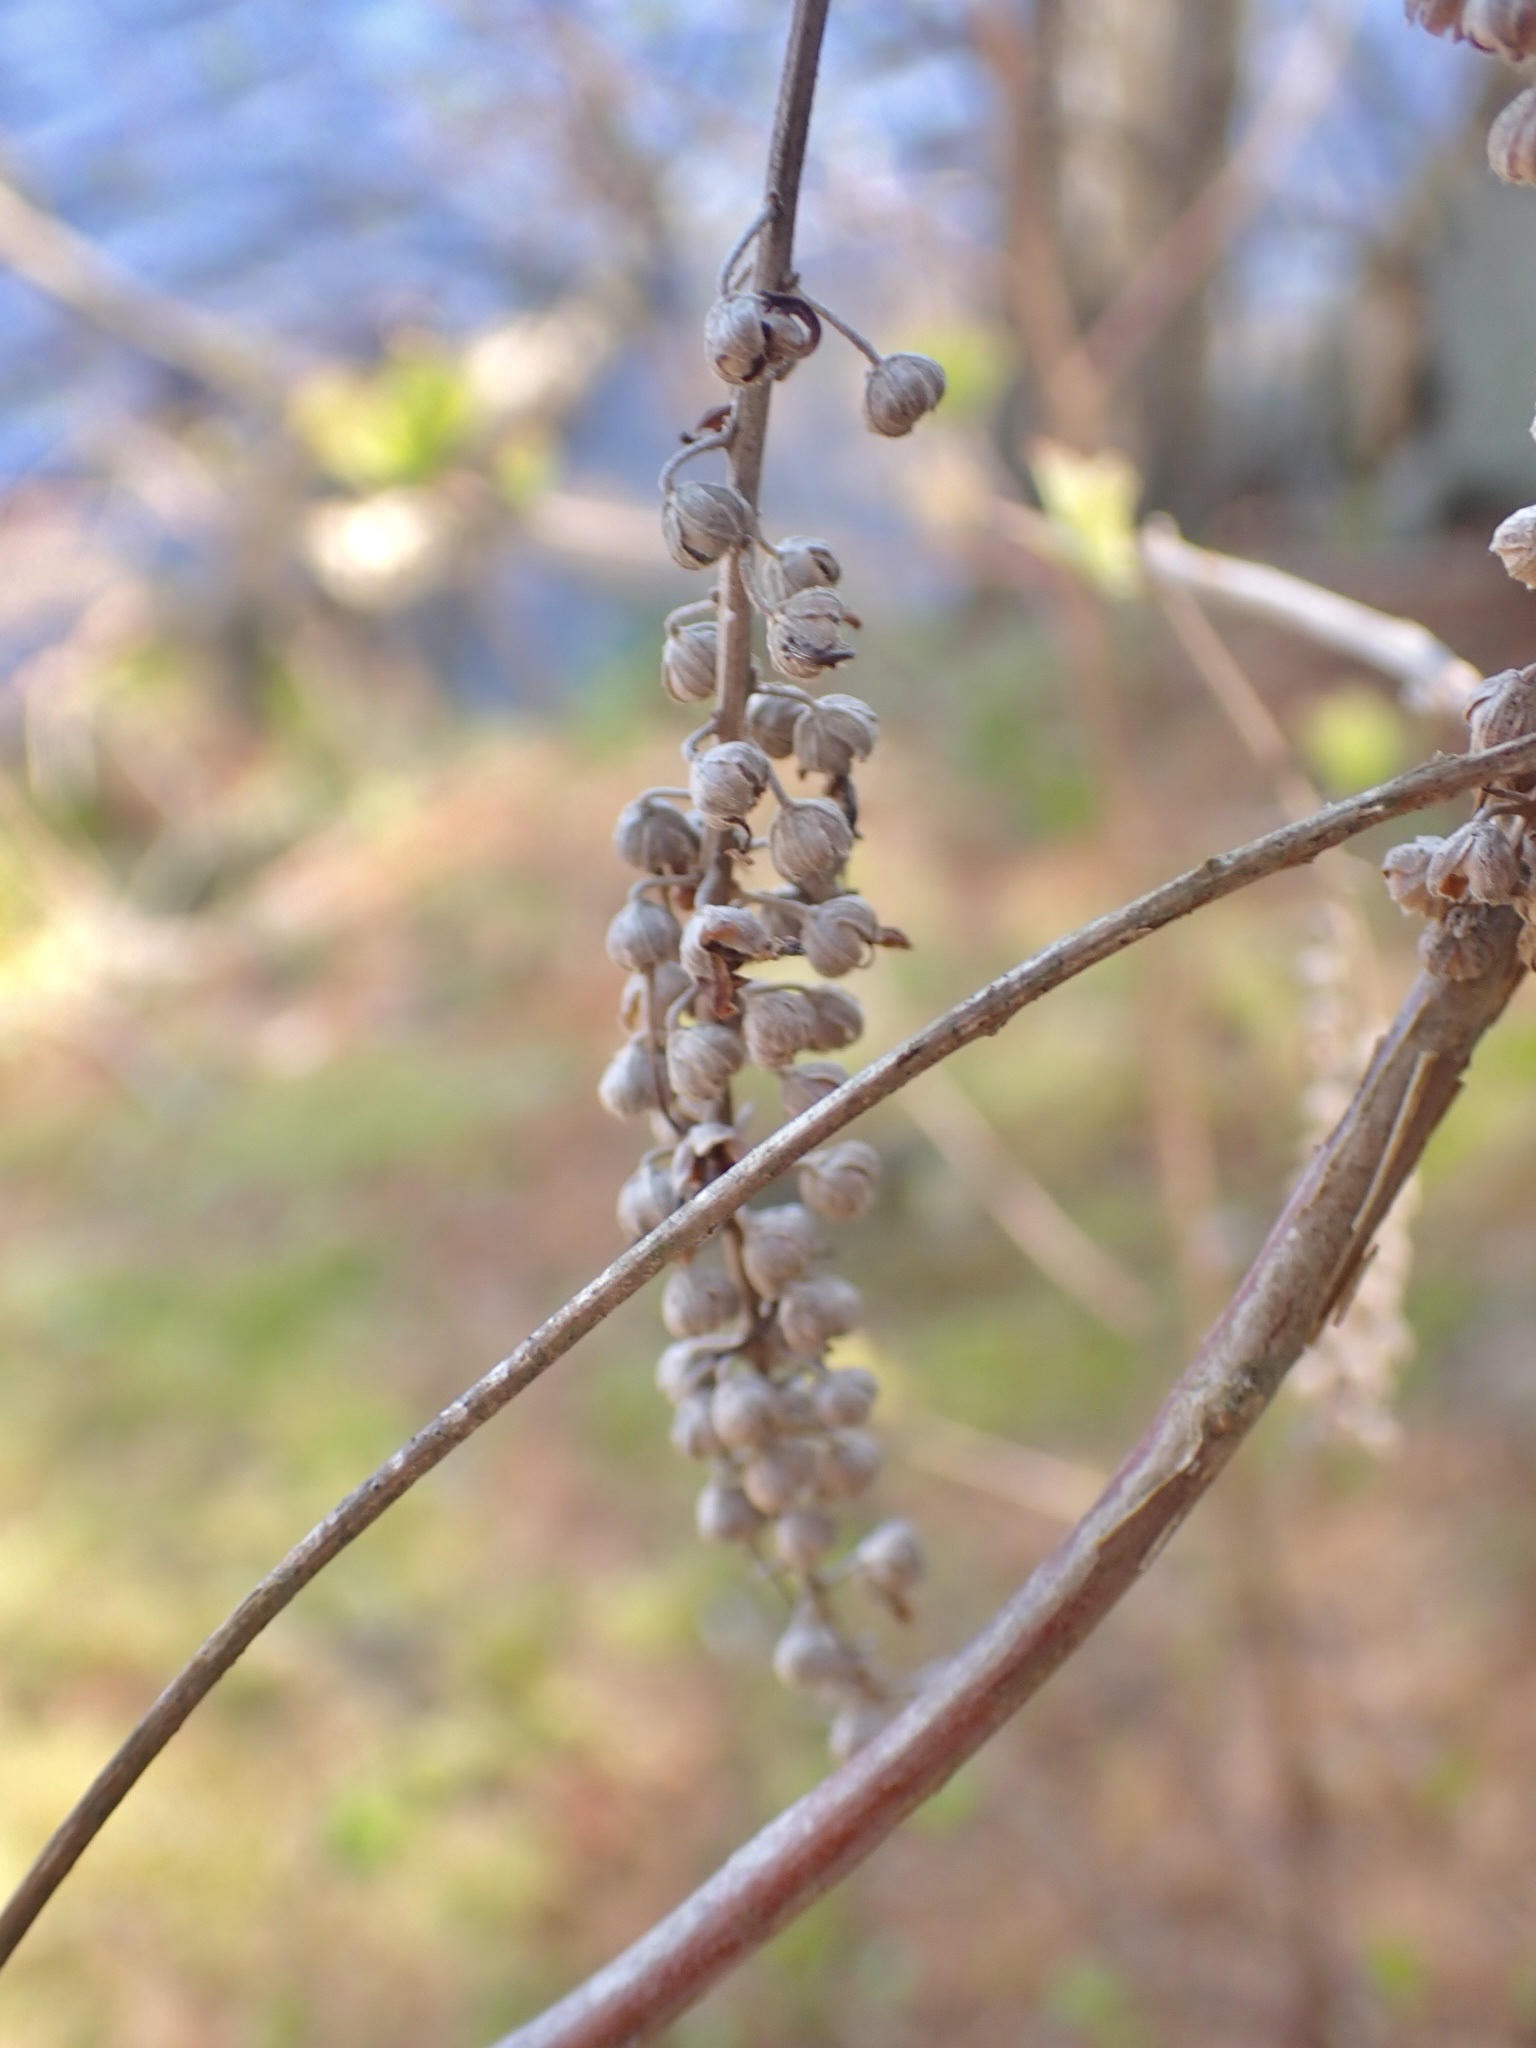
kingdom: Plantae
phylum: Tracheophyta
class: Magnoliopsida
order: Ericales
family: Clethraceae
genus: Clethra
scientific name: Clethra alnifolia
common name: Sweet pepperbush
